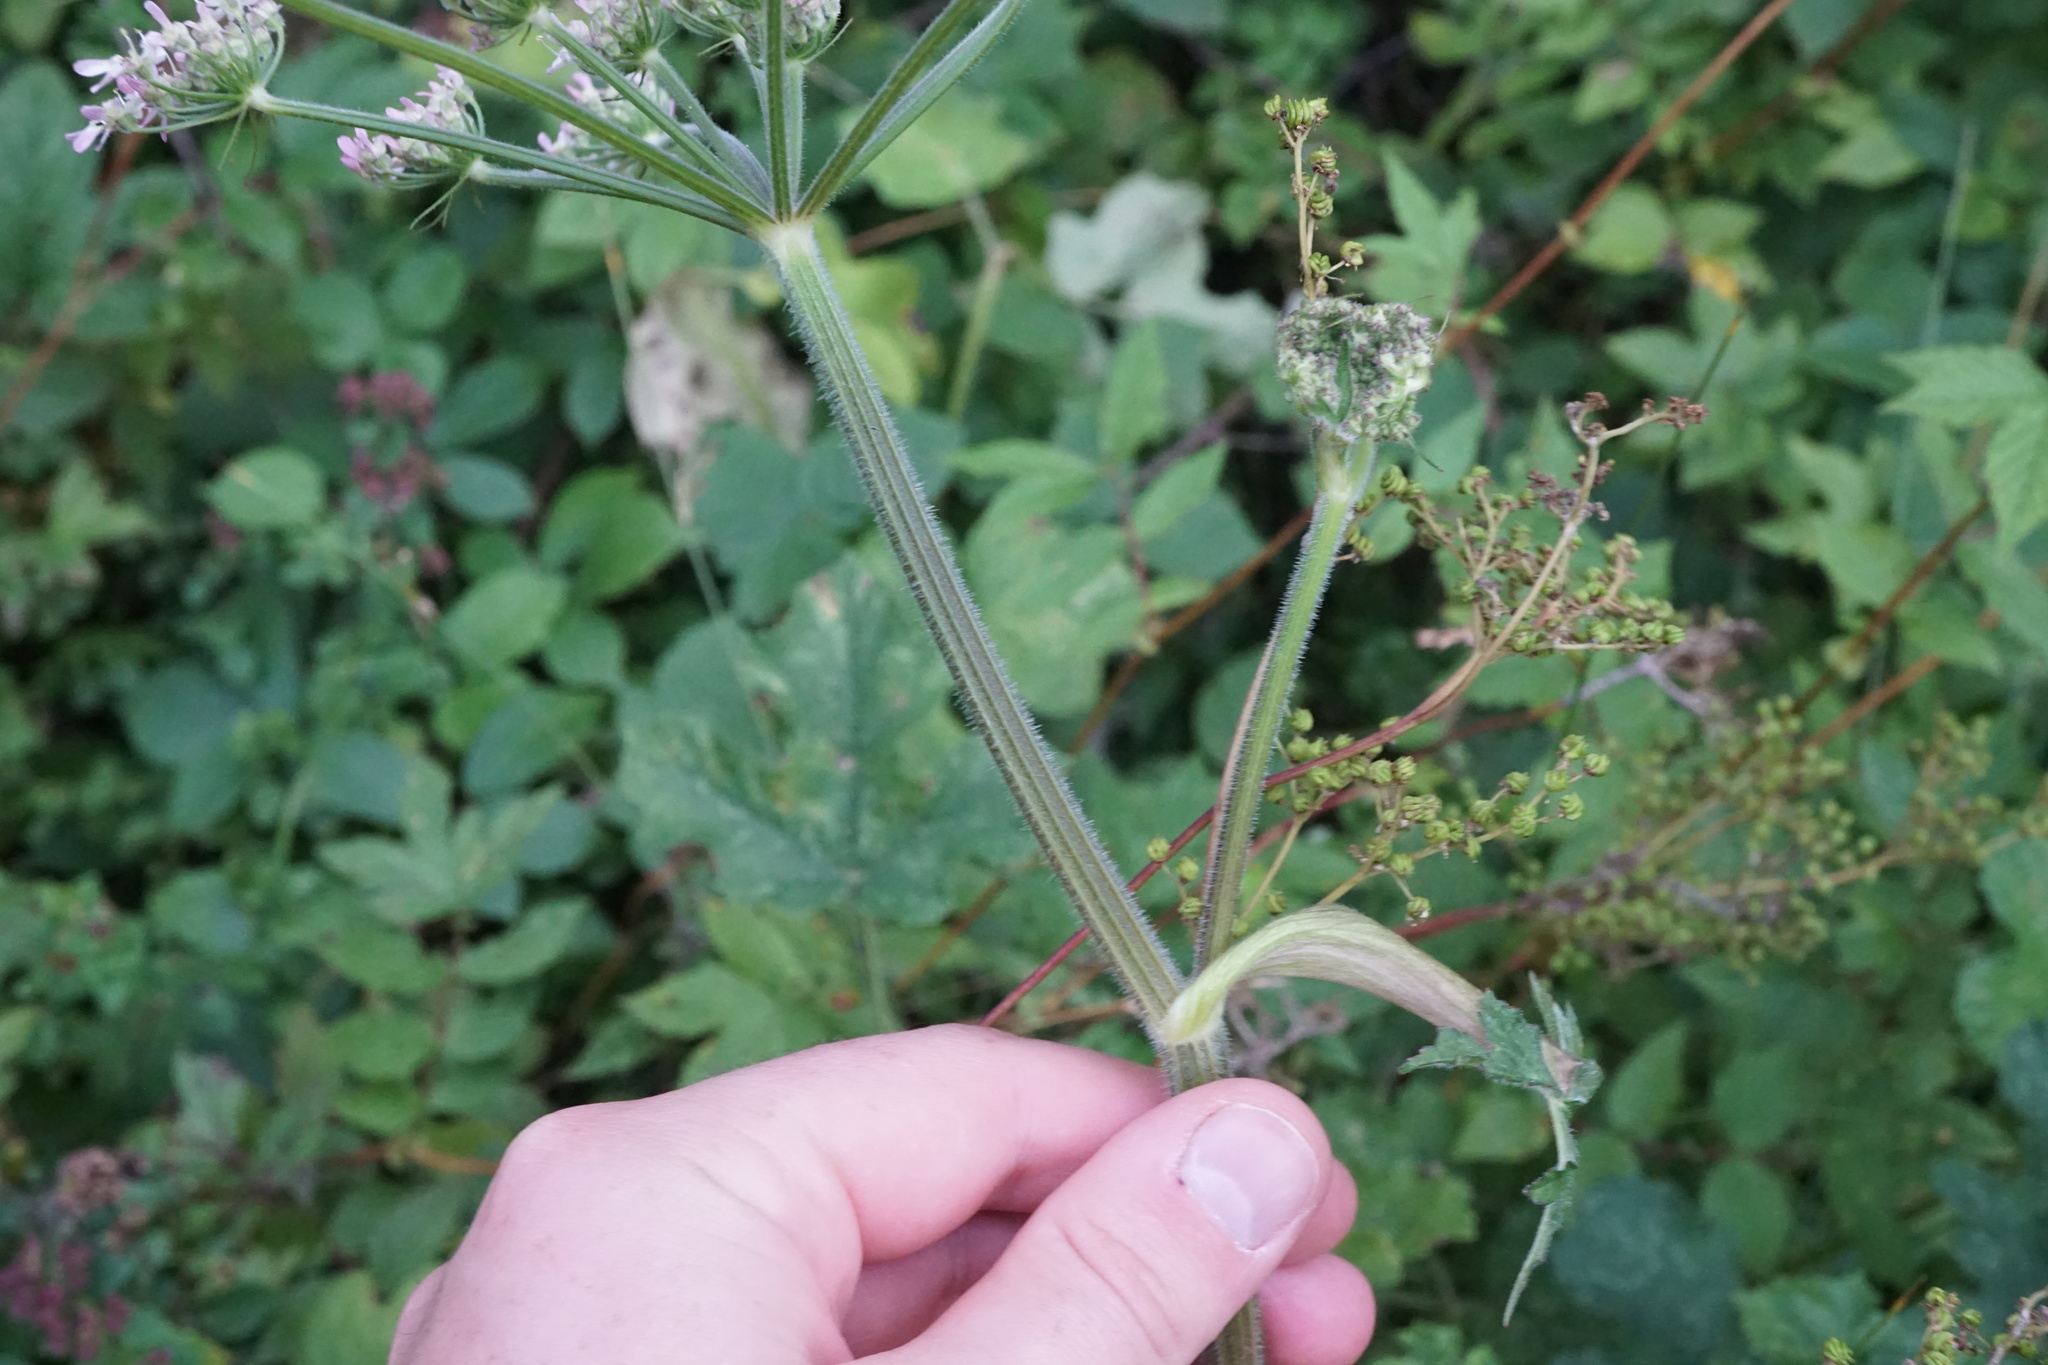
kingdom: Plantae
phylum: Tracheophyta
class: Magnoliopsida
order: Apiales
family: Apiaceae
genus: Heracleum
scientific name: Heracleum sphondylium
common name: Hogweed
